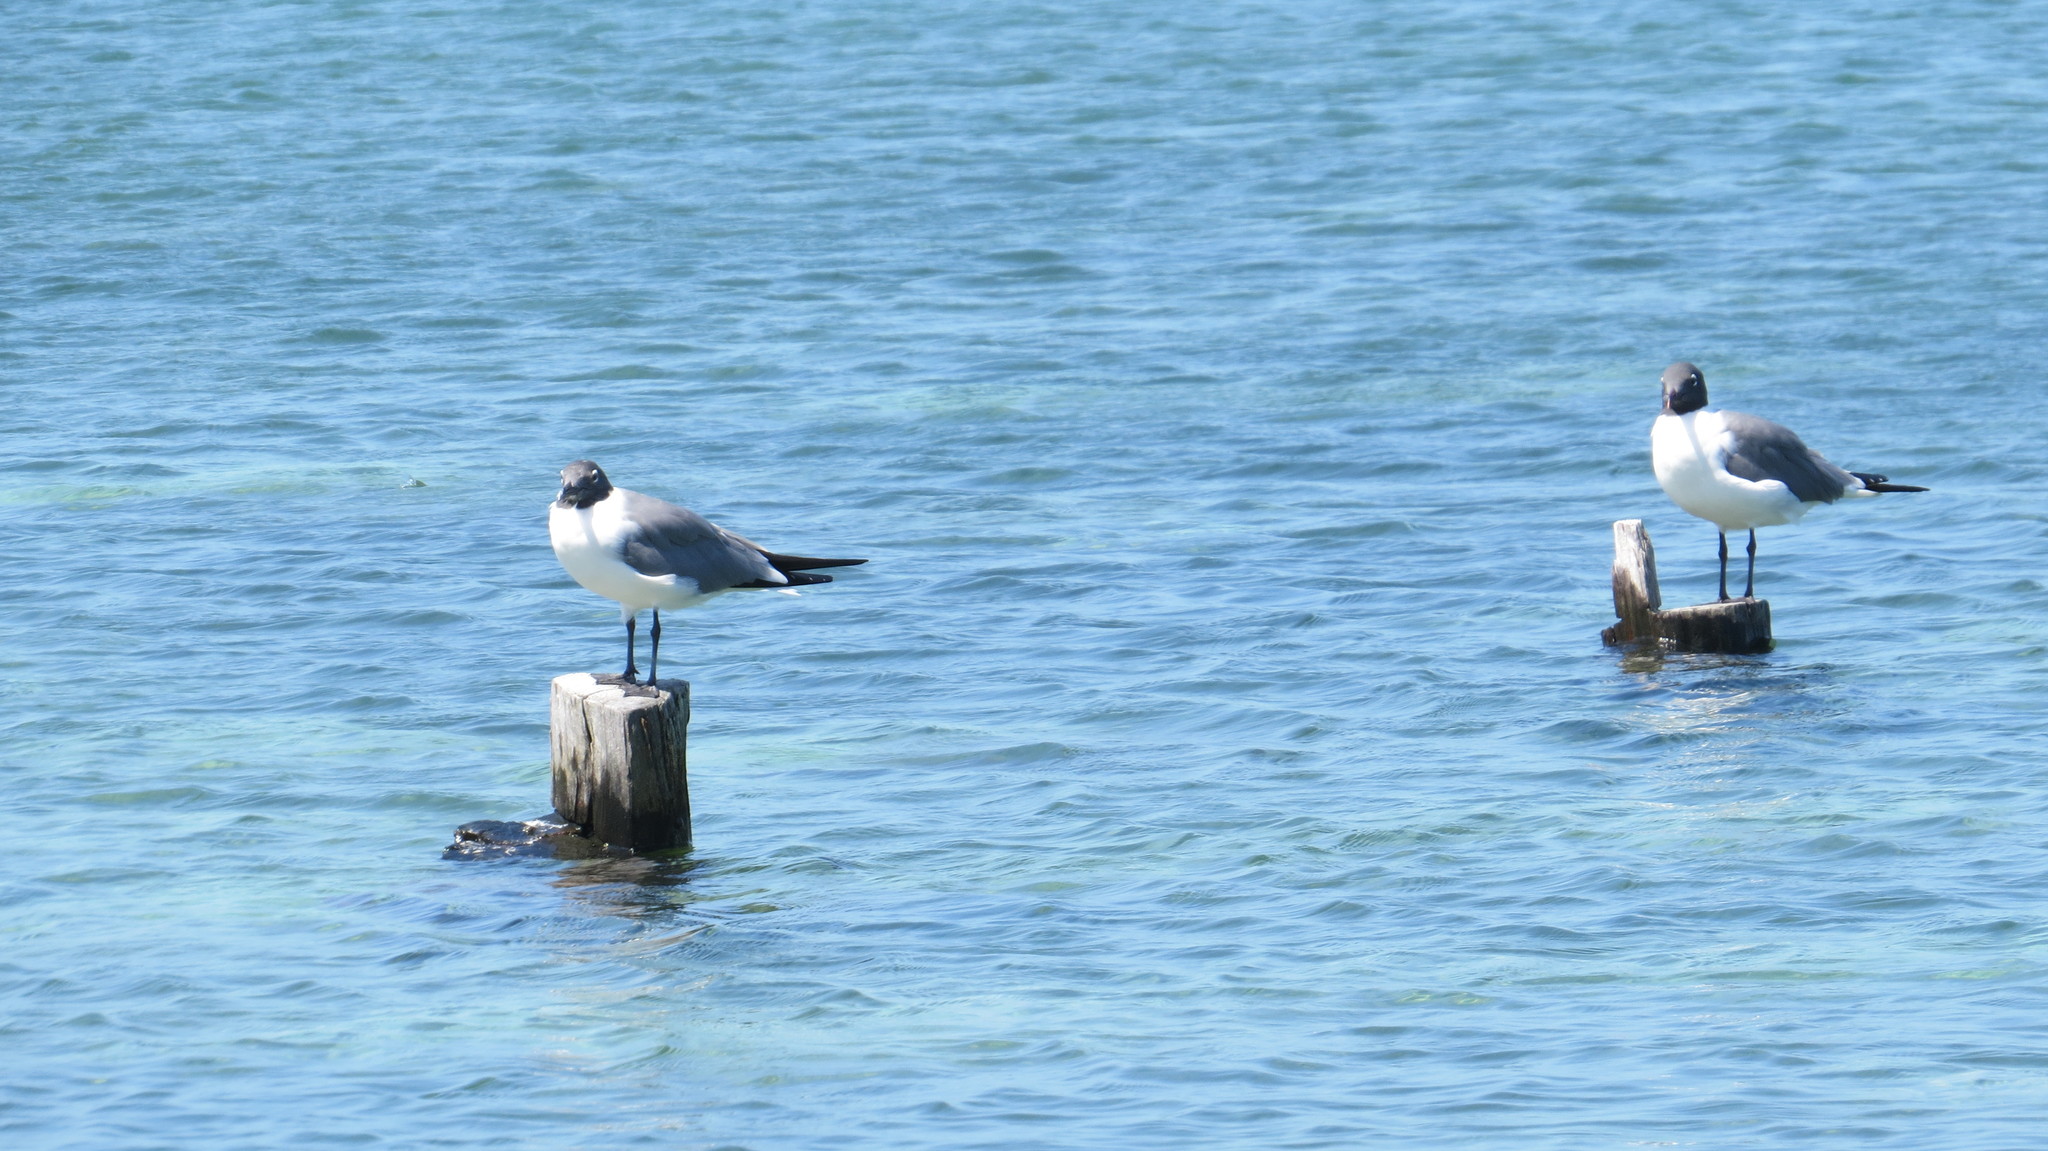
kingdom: Animalia
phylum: Chordata
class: Aves
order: Charadriiformes
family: Laridae
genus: Leucophaeus
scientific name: Leucophaeus atricilla
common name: Laughing gull
